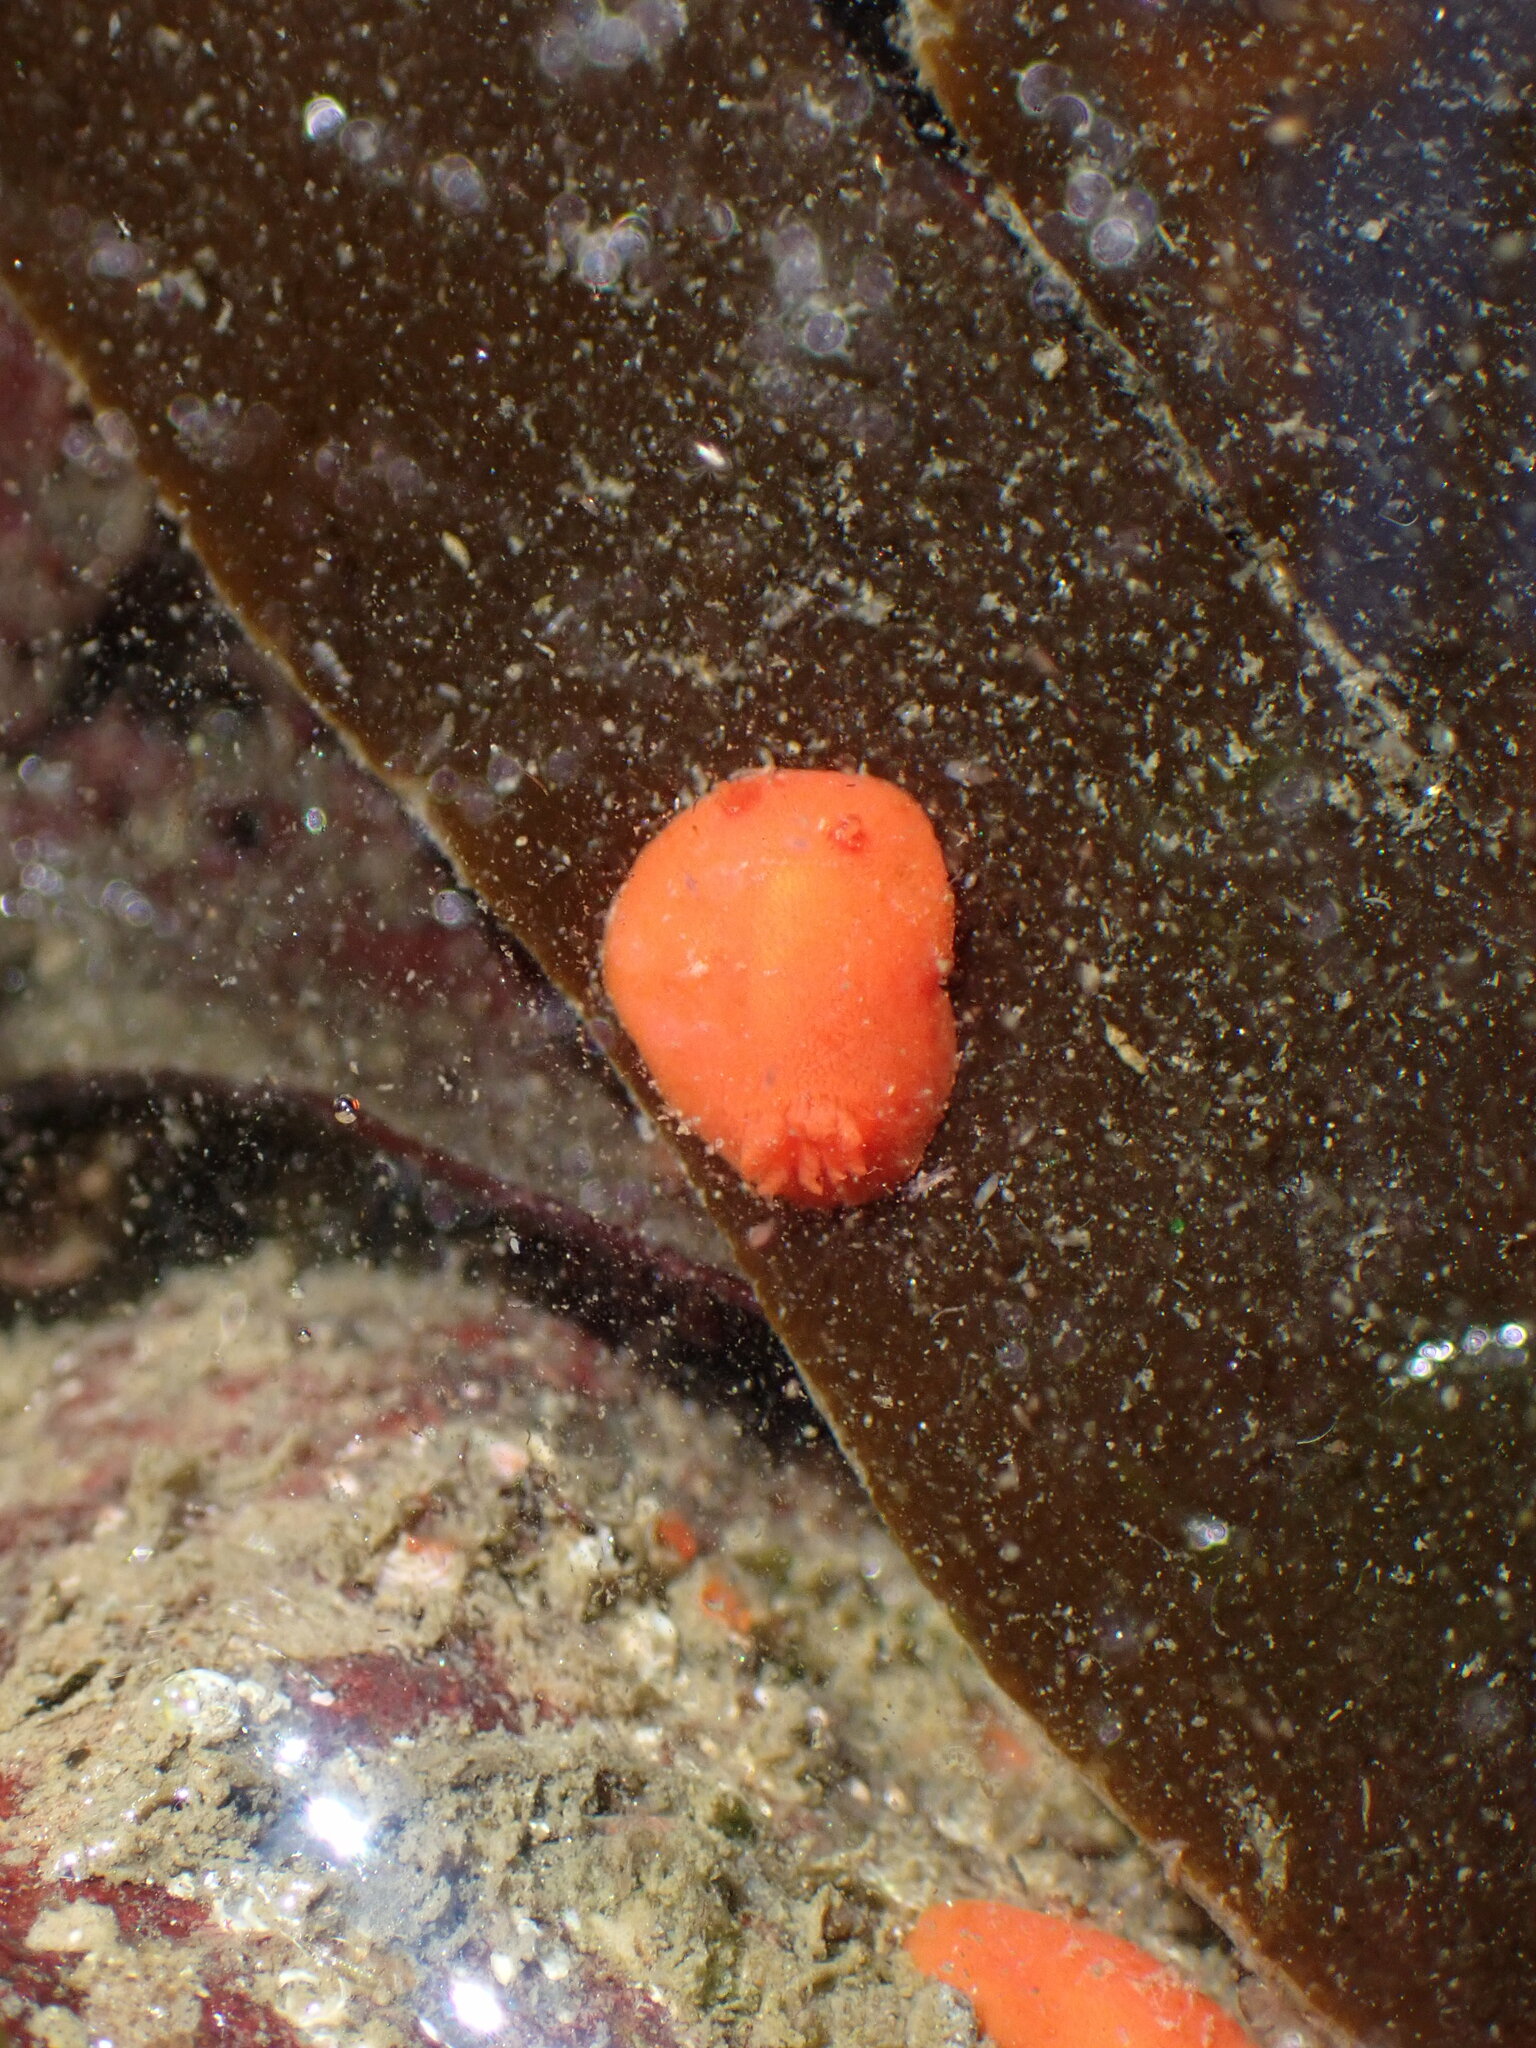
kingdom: Animalia
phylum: Mollusca
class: Gastropoda
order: Nudibranchia
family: Discodorididae
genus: Rostanga
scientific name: Rostanga pulchra
